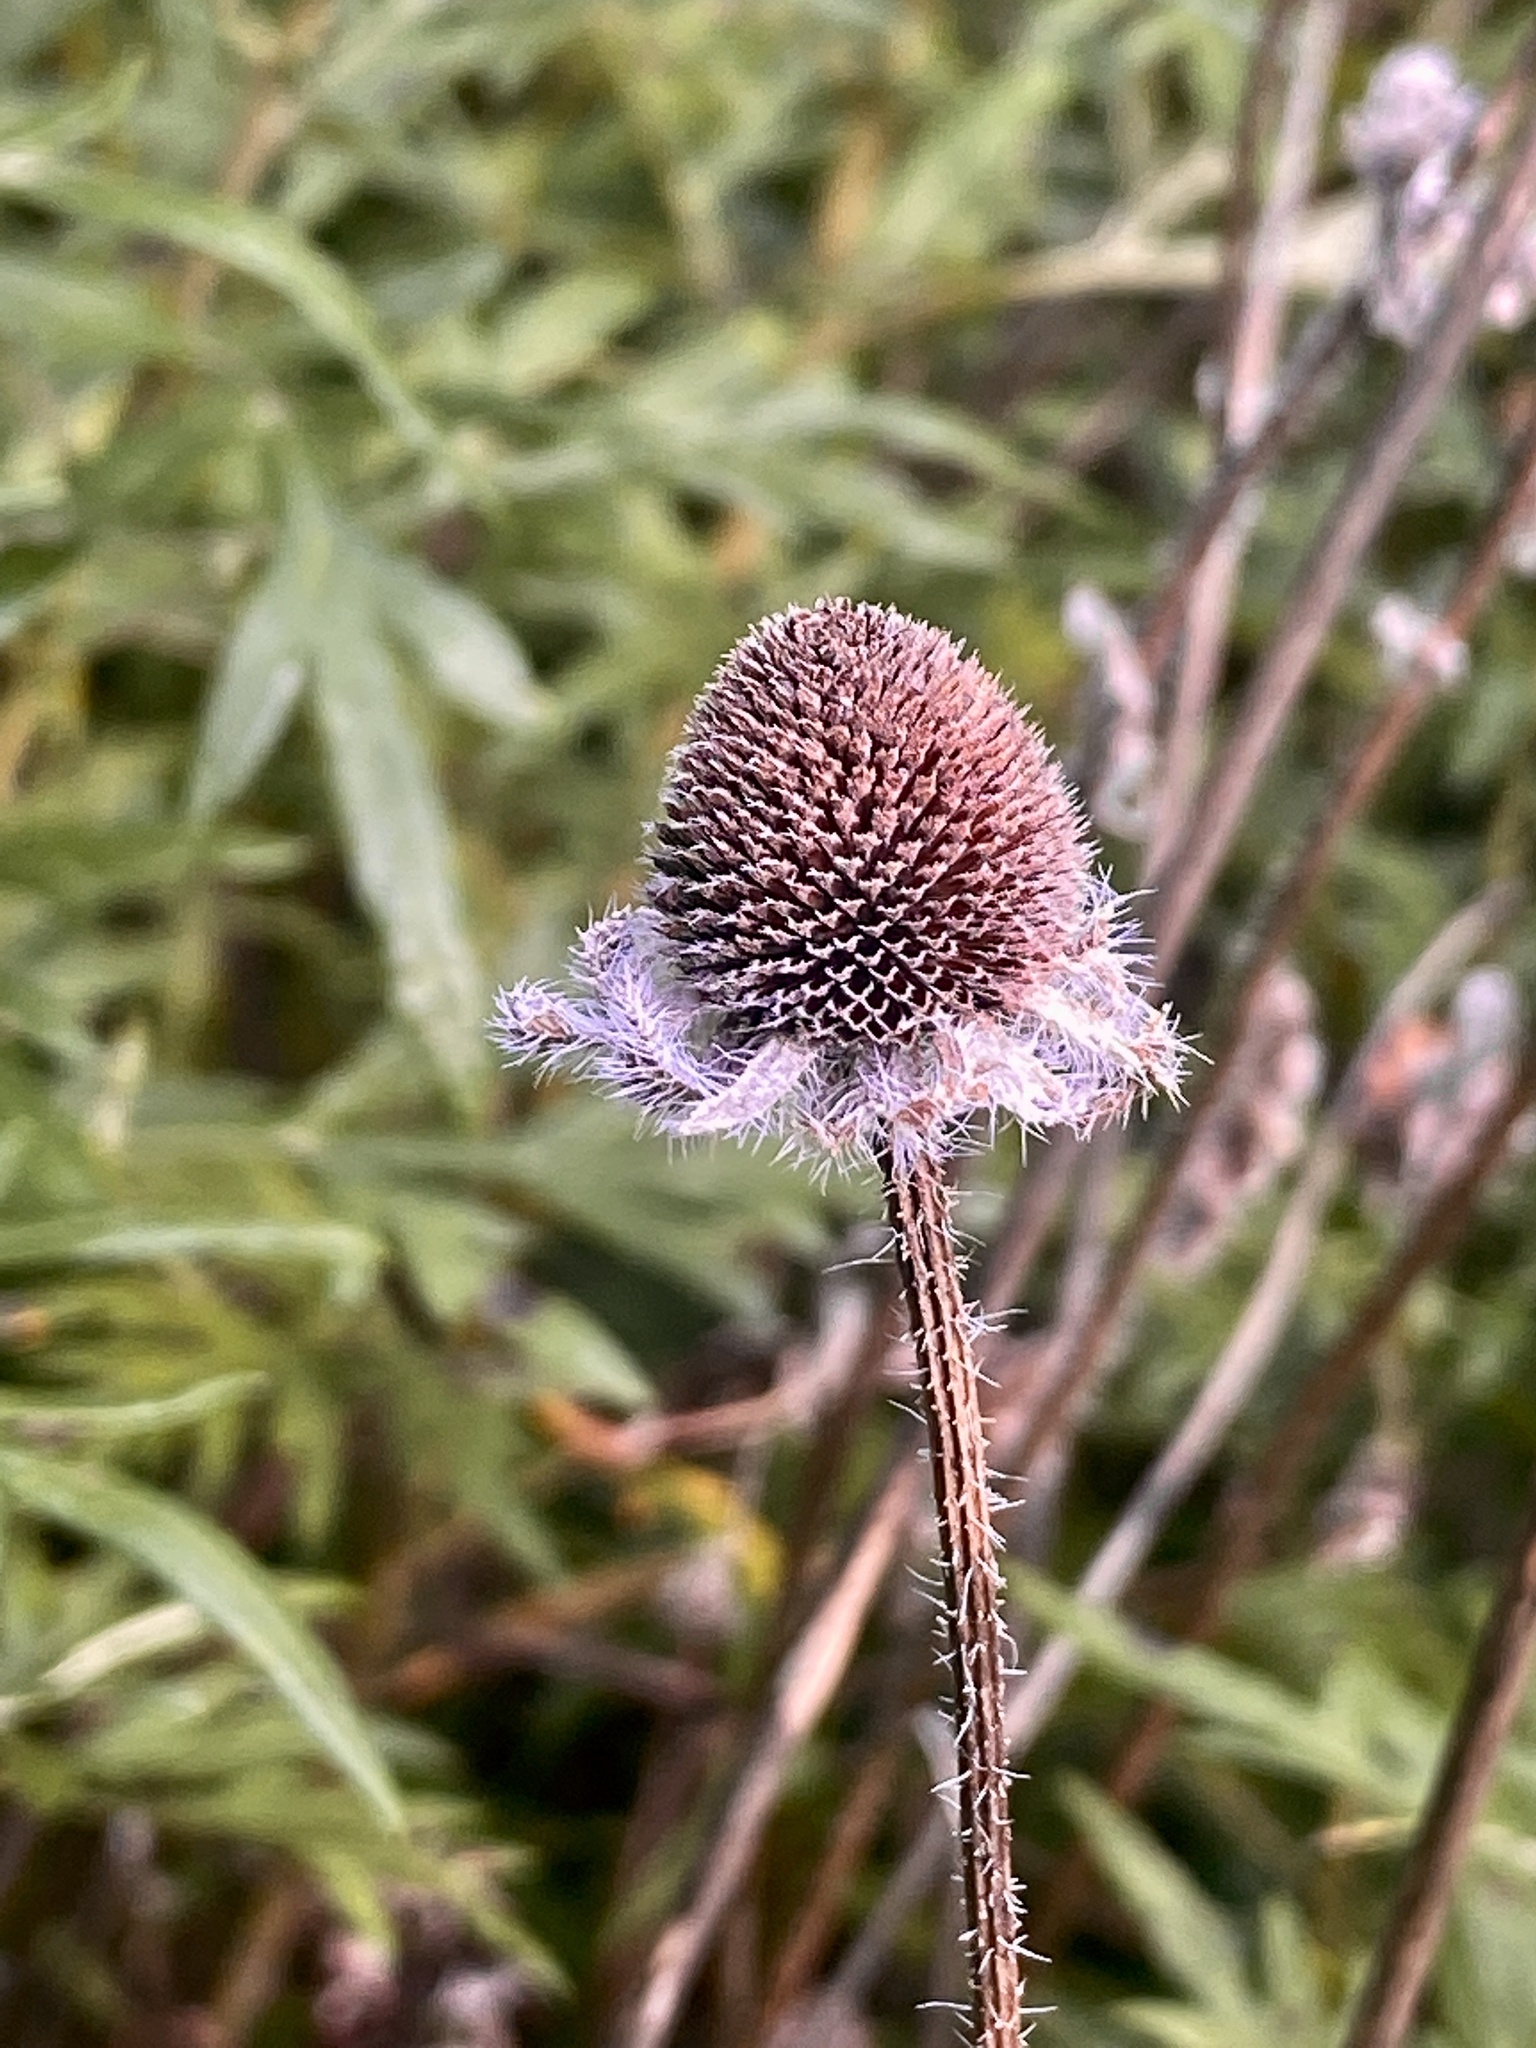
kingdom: Plantae
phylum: Tracheophyta
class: Magnoliopsida
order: Asterales
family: Asteraceae
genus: Rudbeckia
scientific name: Rudbeckia hirta
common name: Black-eyed-susan
